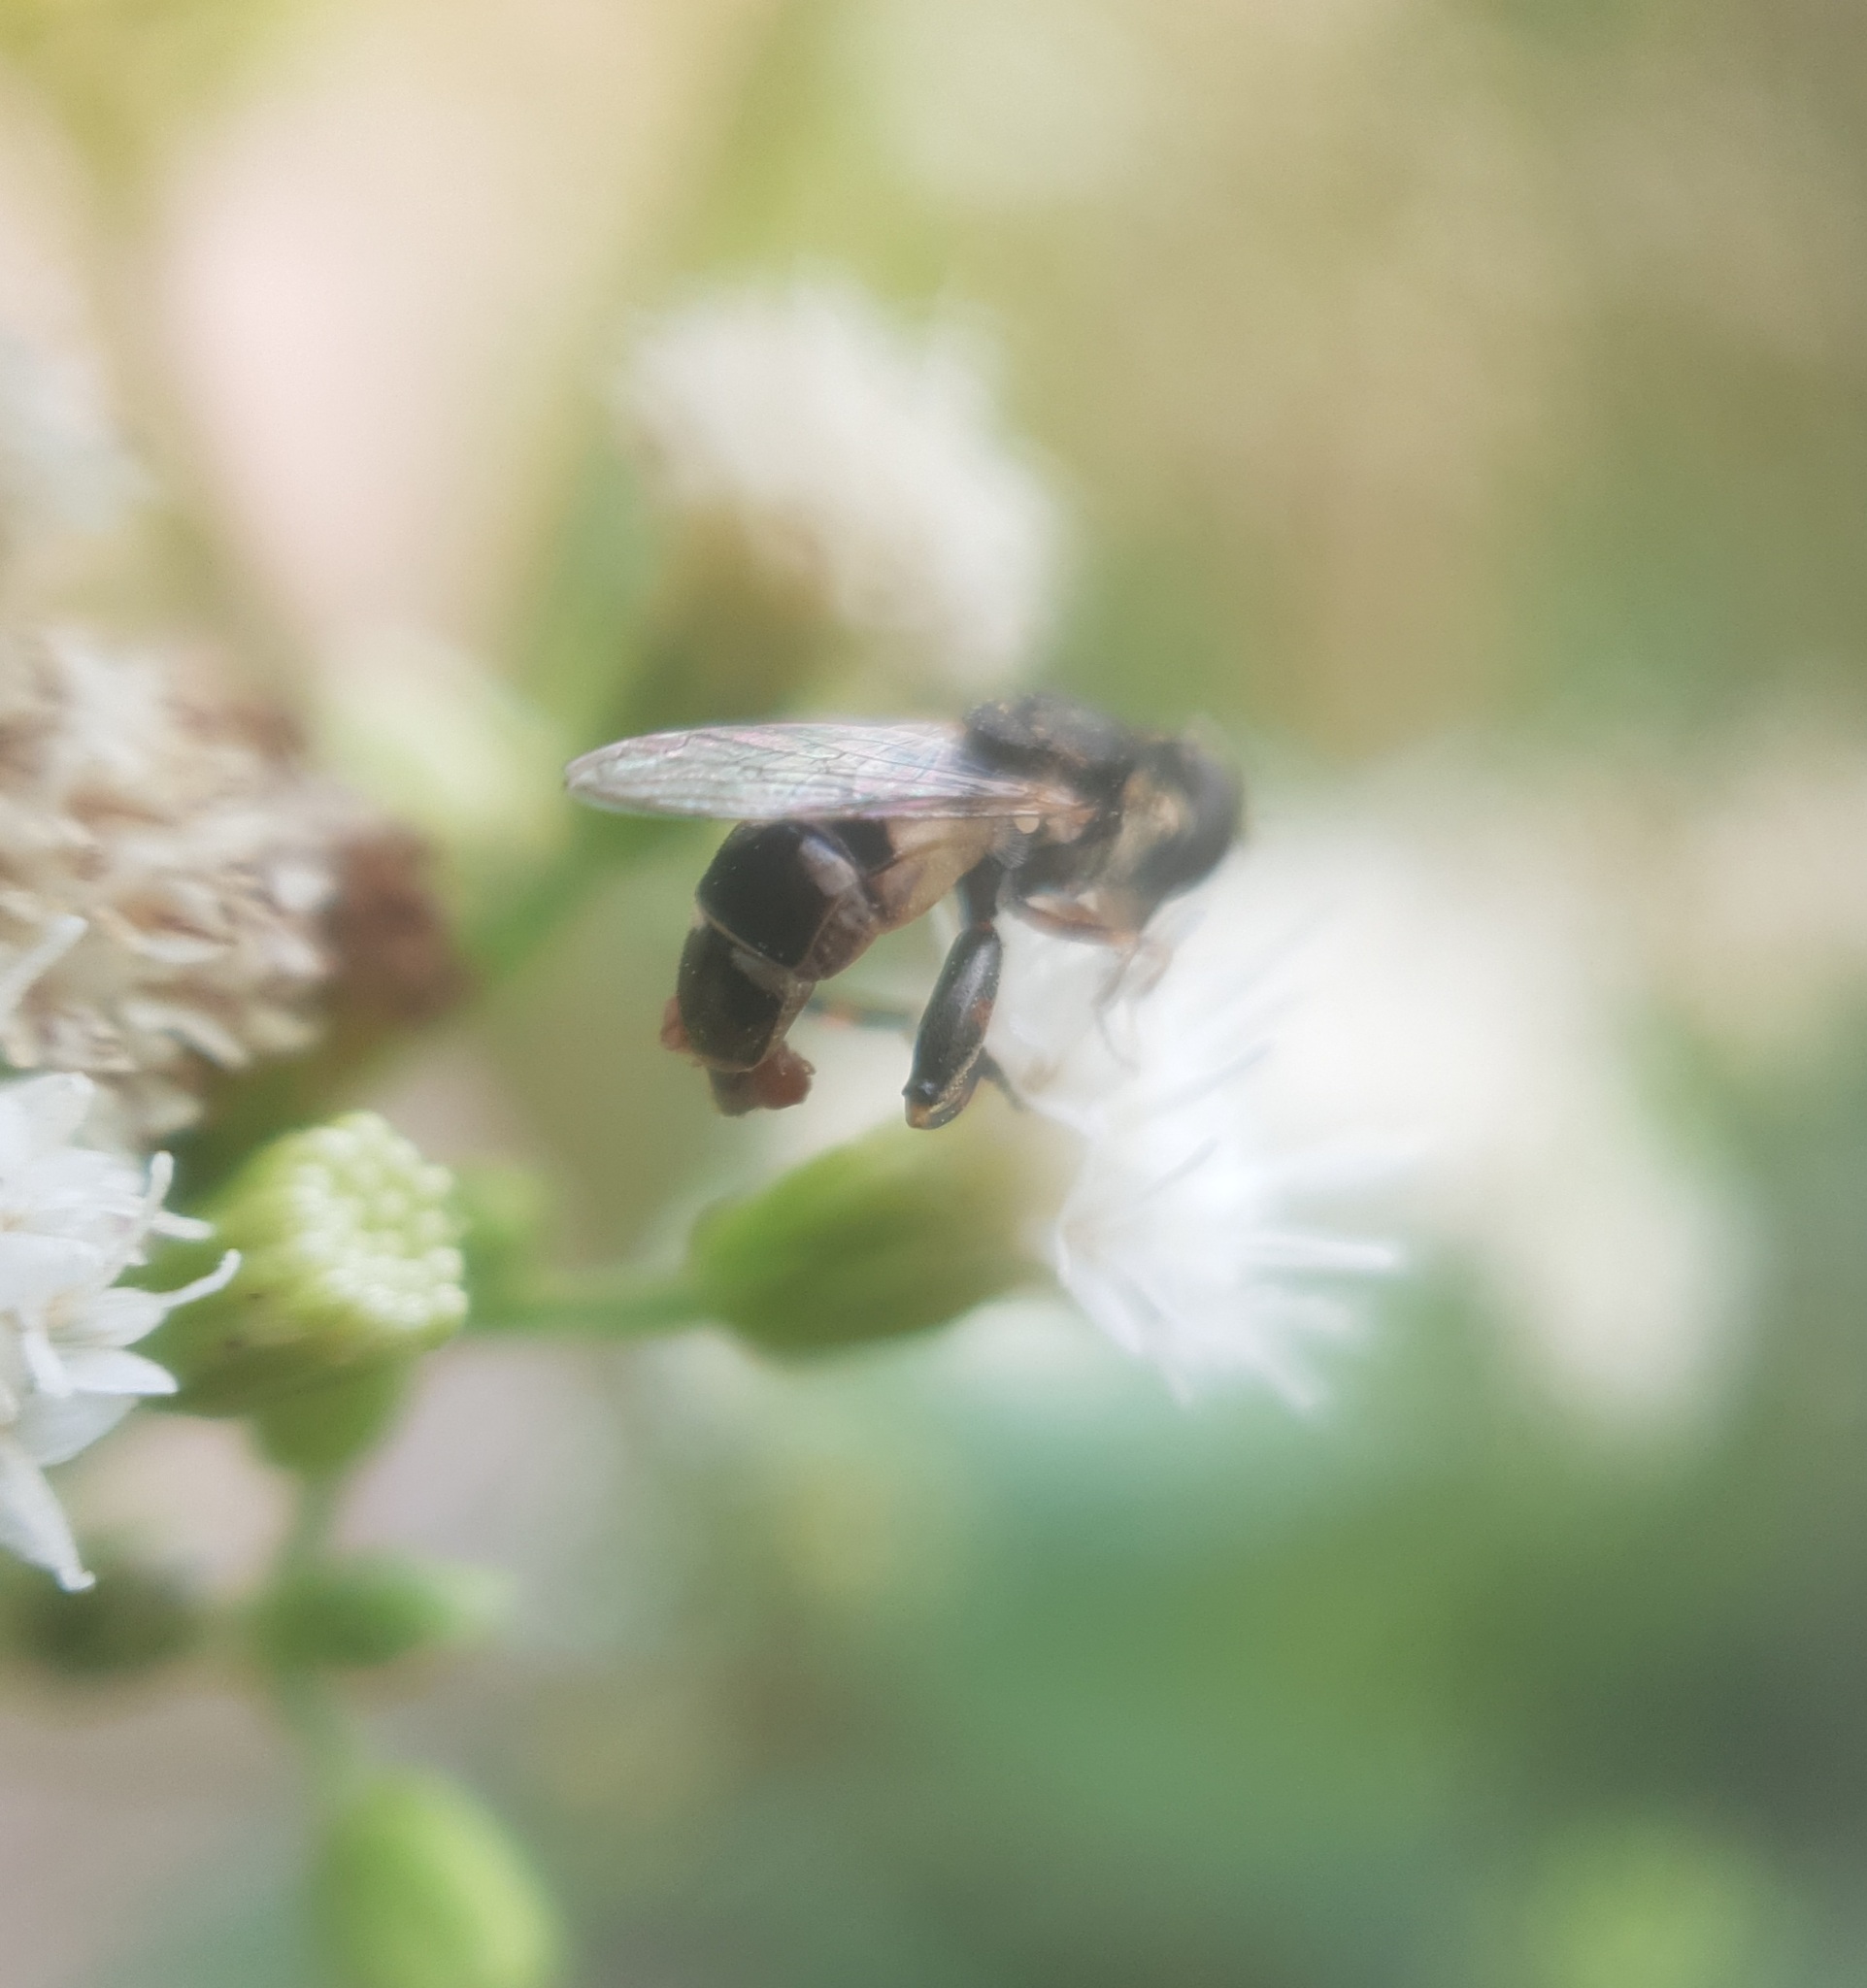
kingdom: Animalia
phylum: Arthropoda
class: Insecta
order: Diptera
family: Syrphidae
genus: Syritta
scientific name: Syritta pipiens
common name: Hover fly
